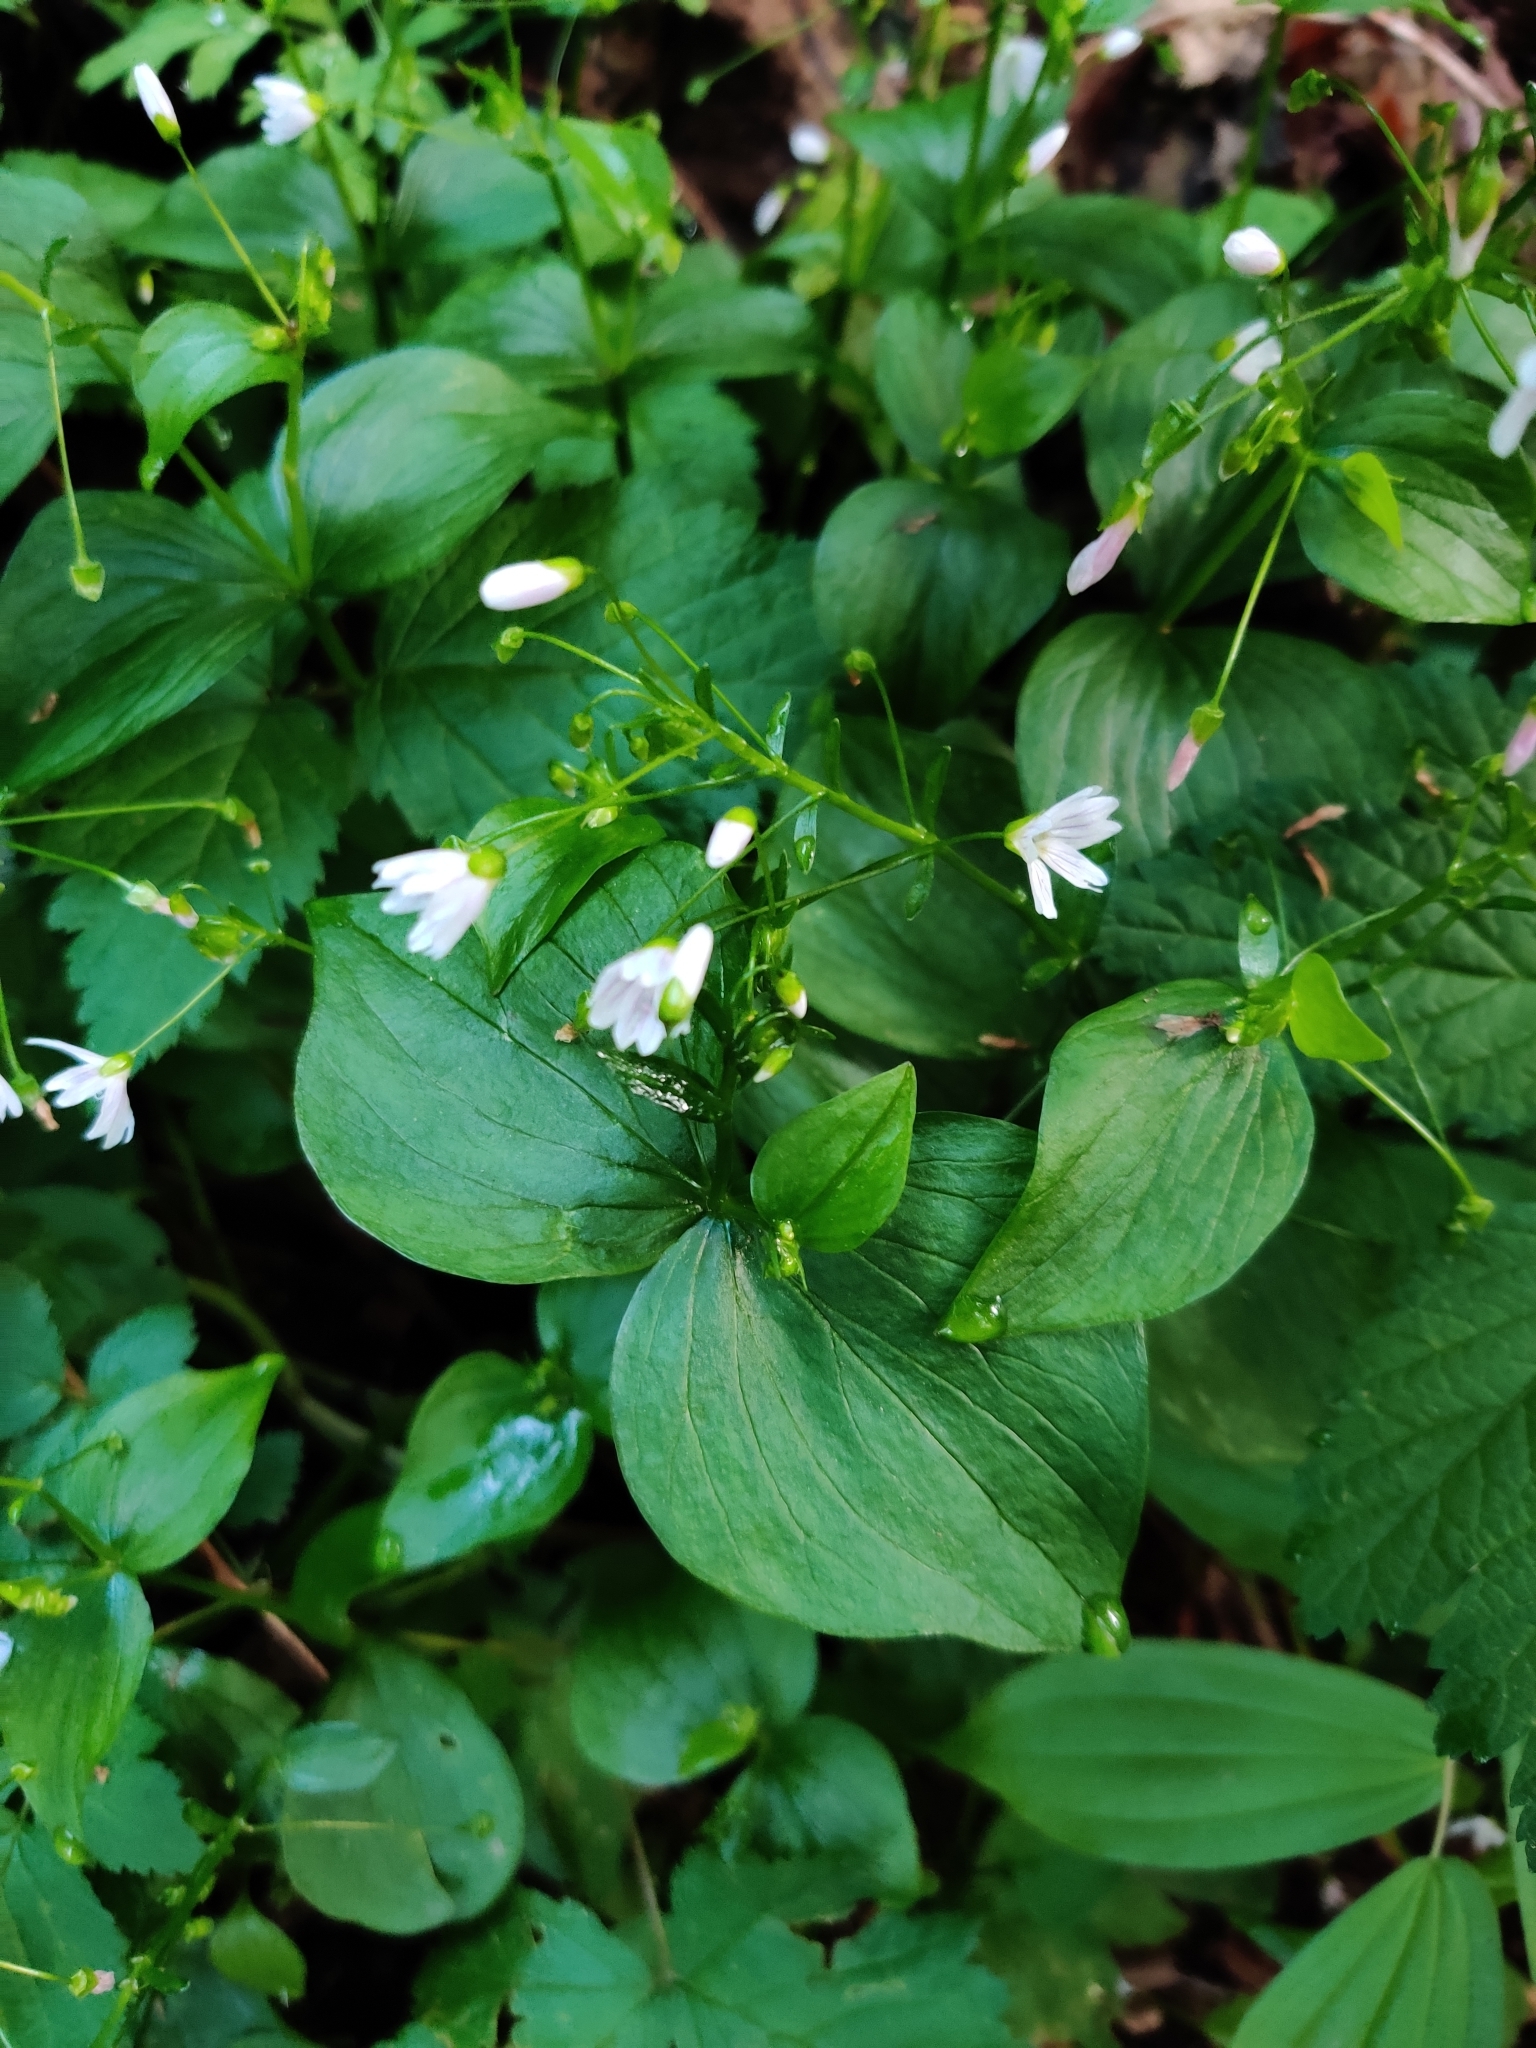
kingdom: Plantae
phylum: Tracheophyta
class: Magnoliopsida
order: Caryophyllales
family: Montiaceae
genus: Claytonia
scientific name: Claytonia sibirica
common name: Pink purslane
